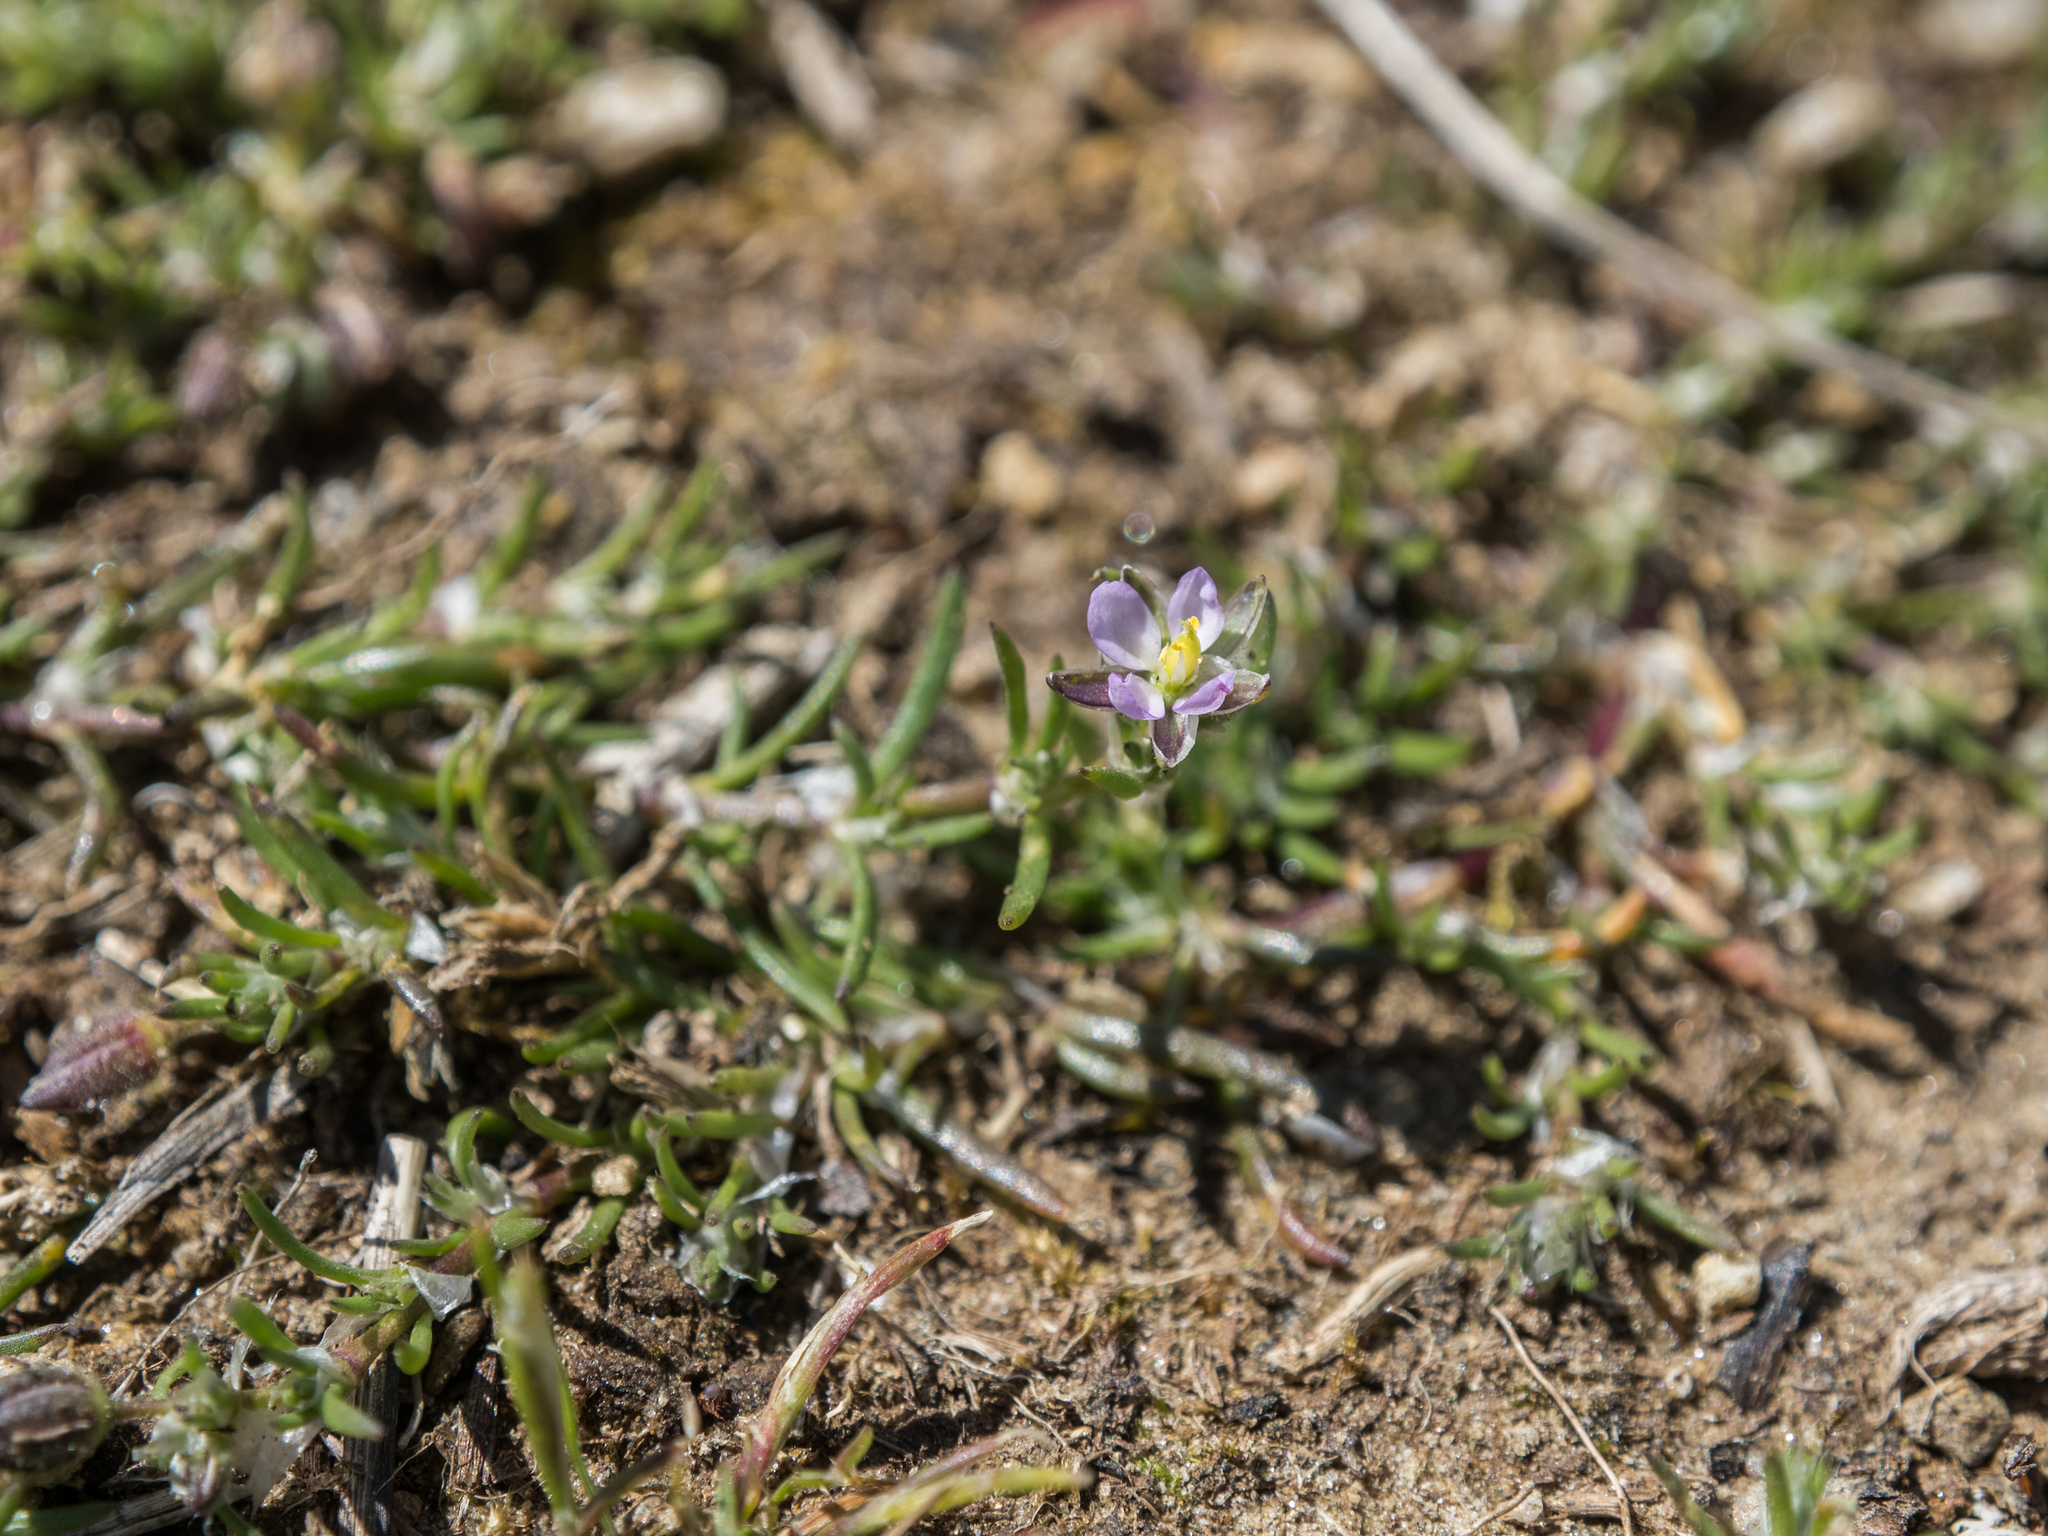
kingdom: Plantae
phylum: Tracheophyta
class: Magnoliopsida
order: Caryophyllales
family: Caryophyllaceae
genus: Spergularia
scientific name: Spergularia rubra
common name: Red sand-spurrey
